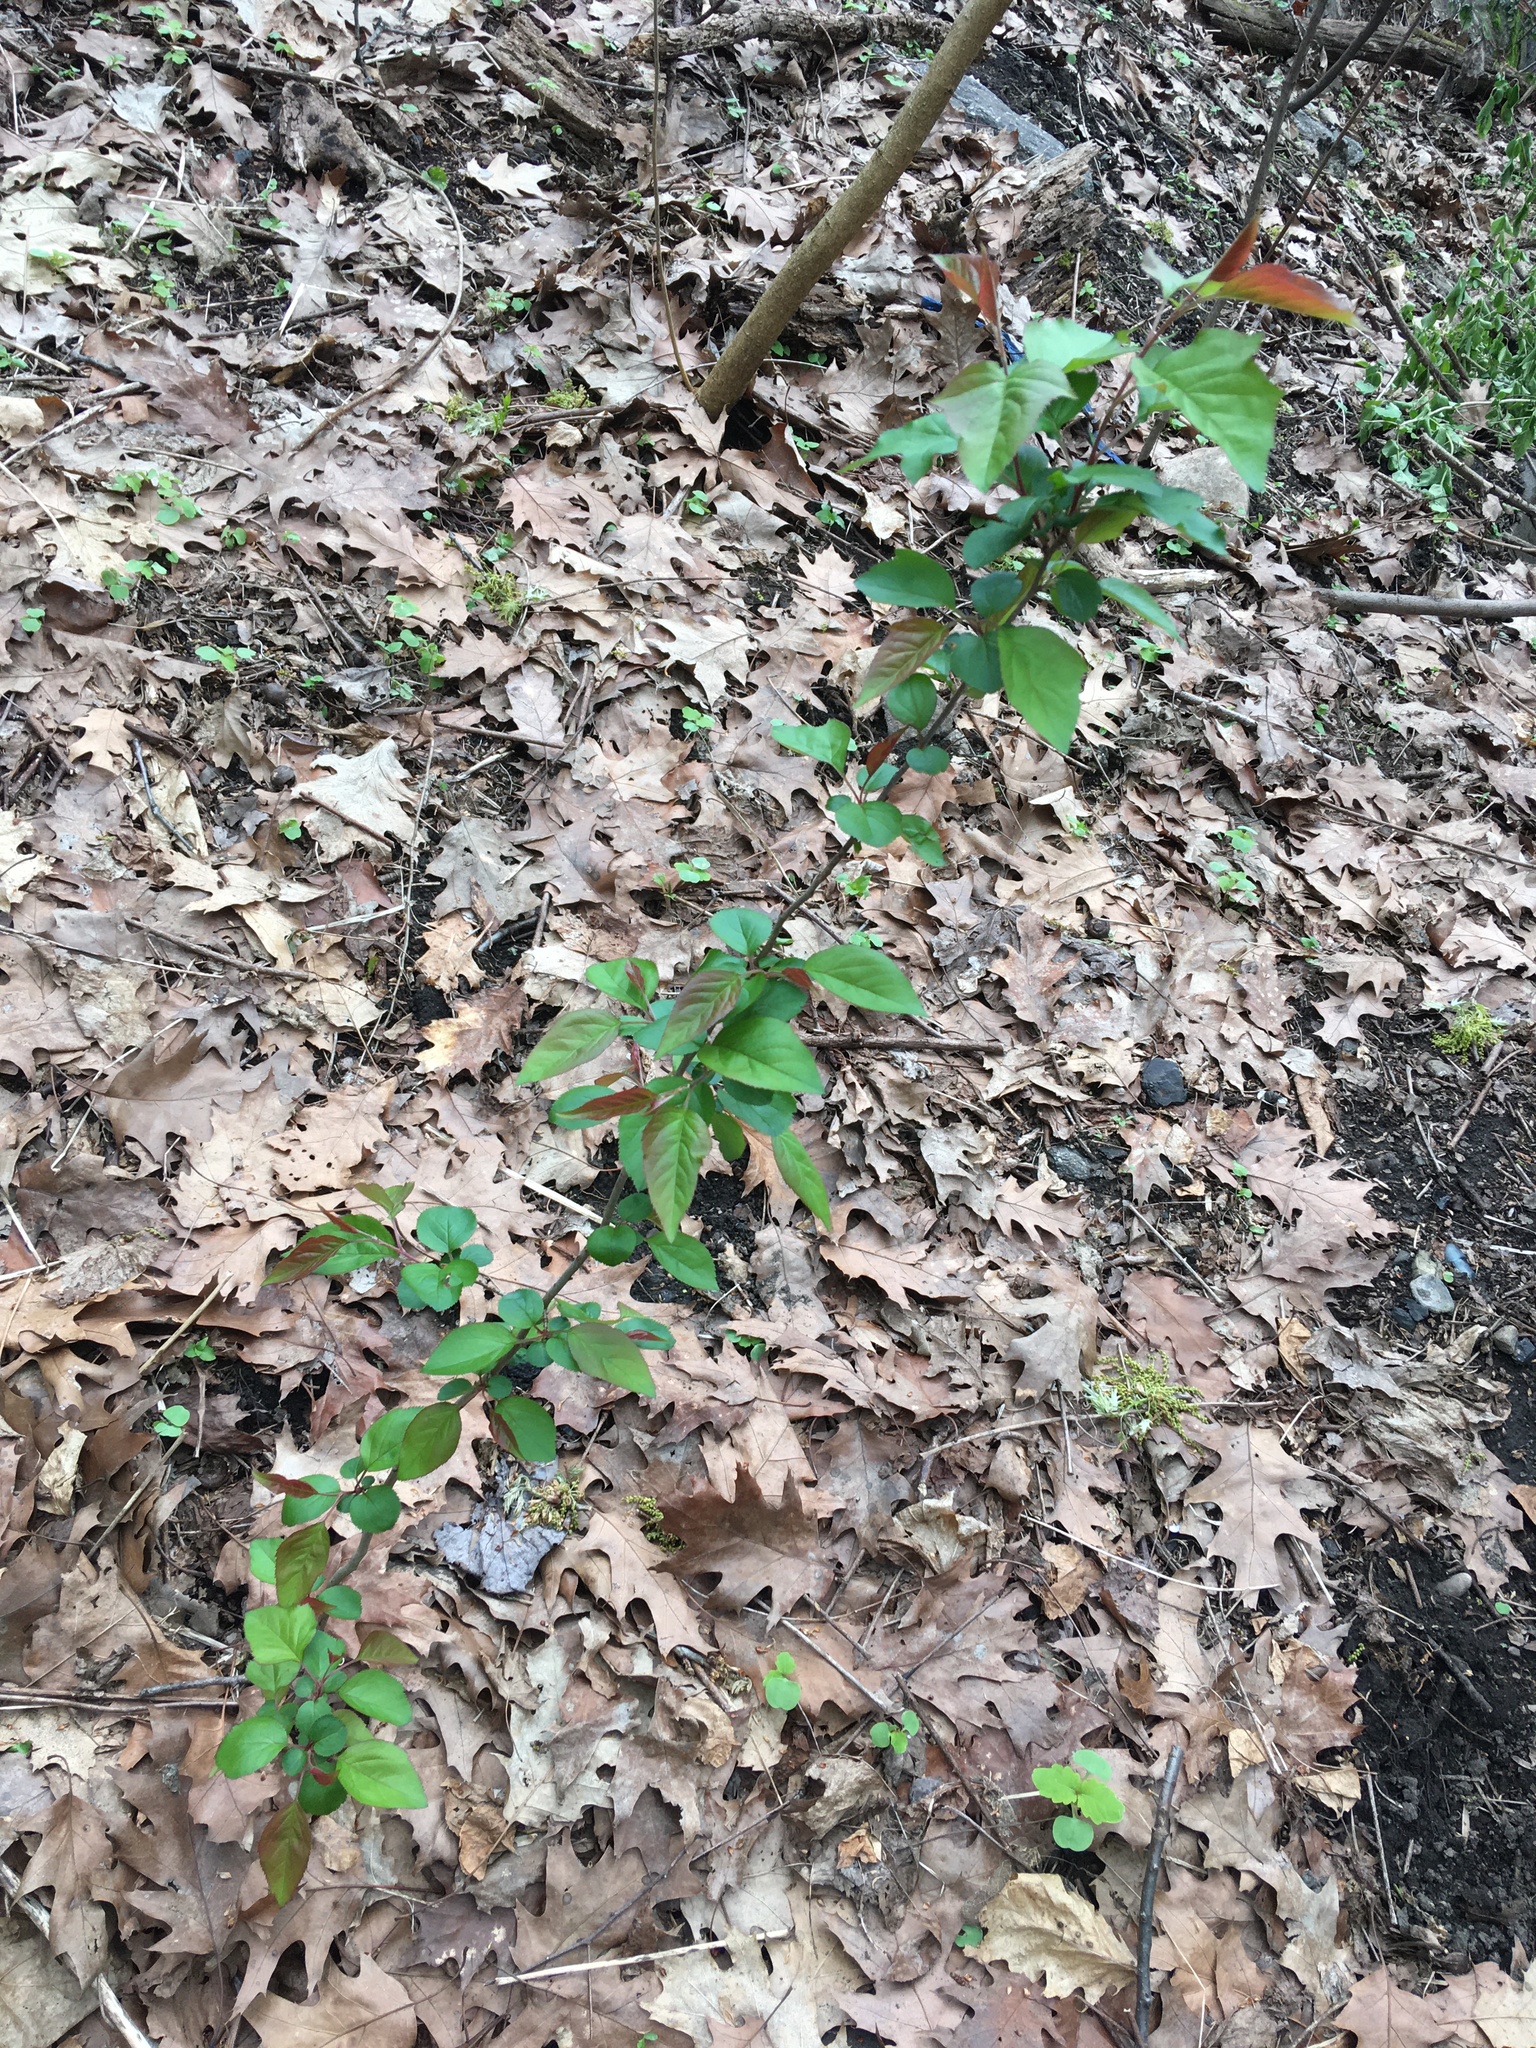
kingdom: Plantae
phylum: Tracheophyta
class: Magnoliopsida
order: Rosales
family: Rosaceae
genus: Malus
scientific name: Malus hupehensis
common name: Chinese crab apple
